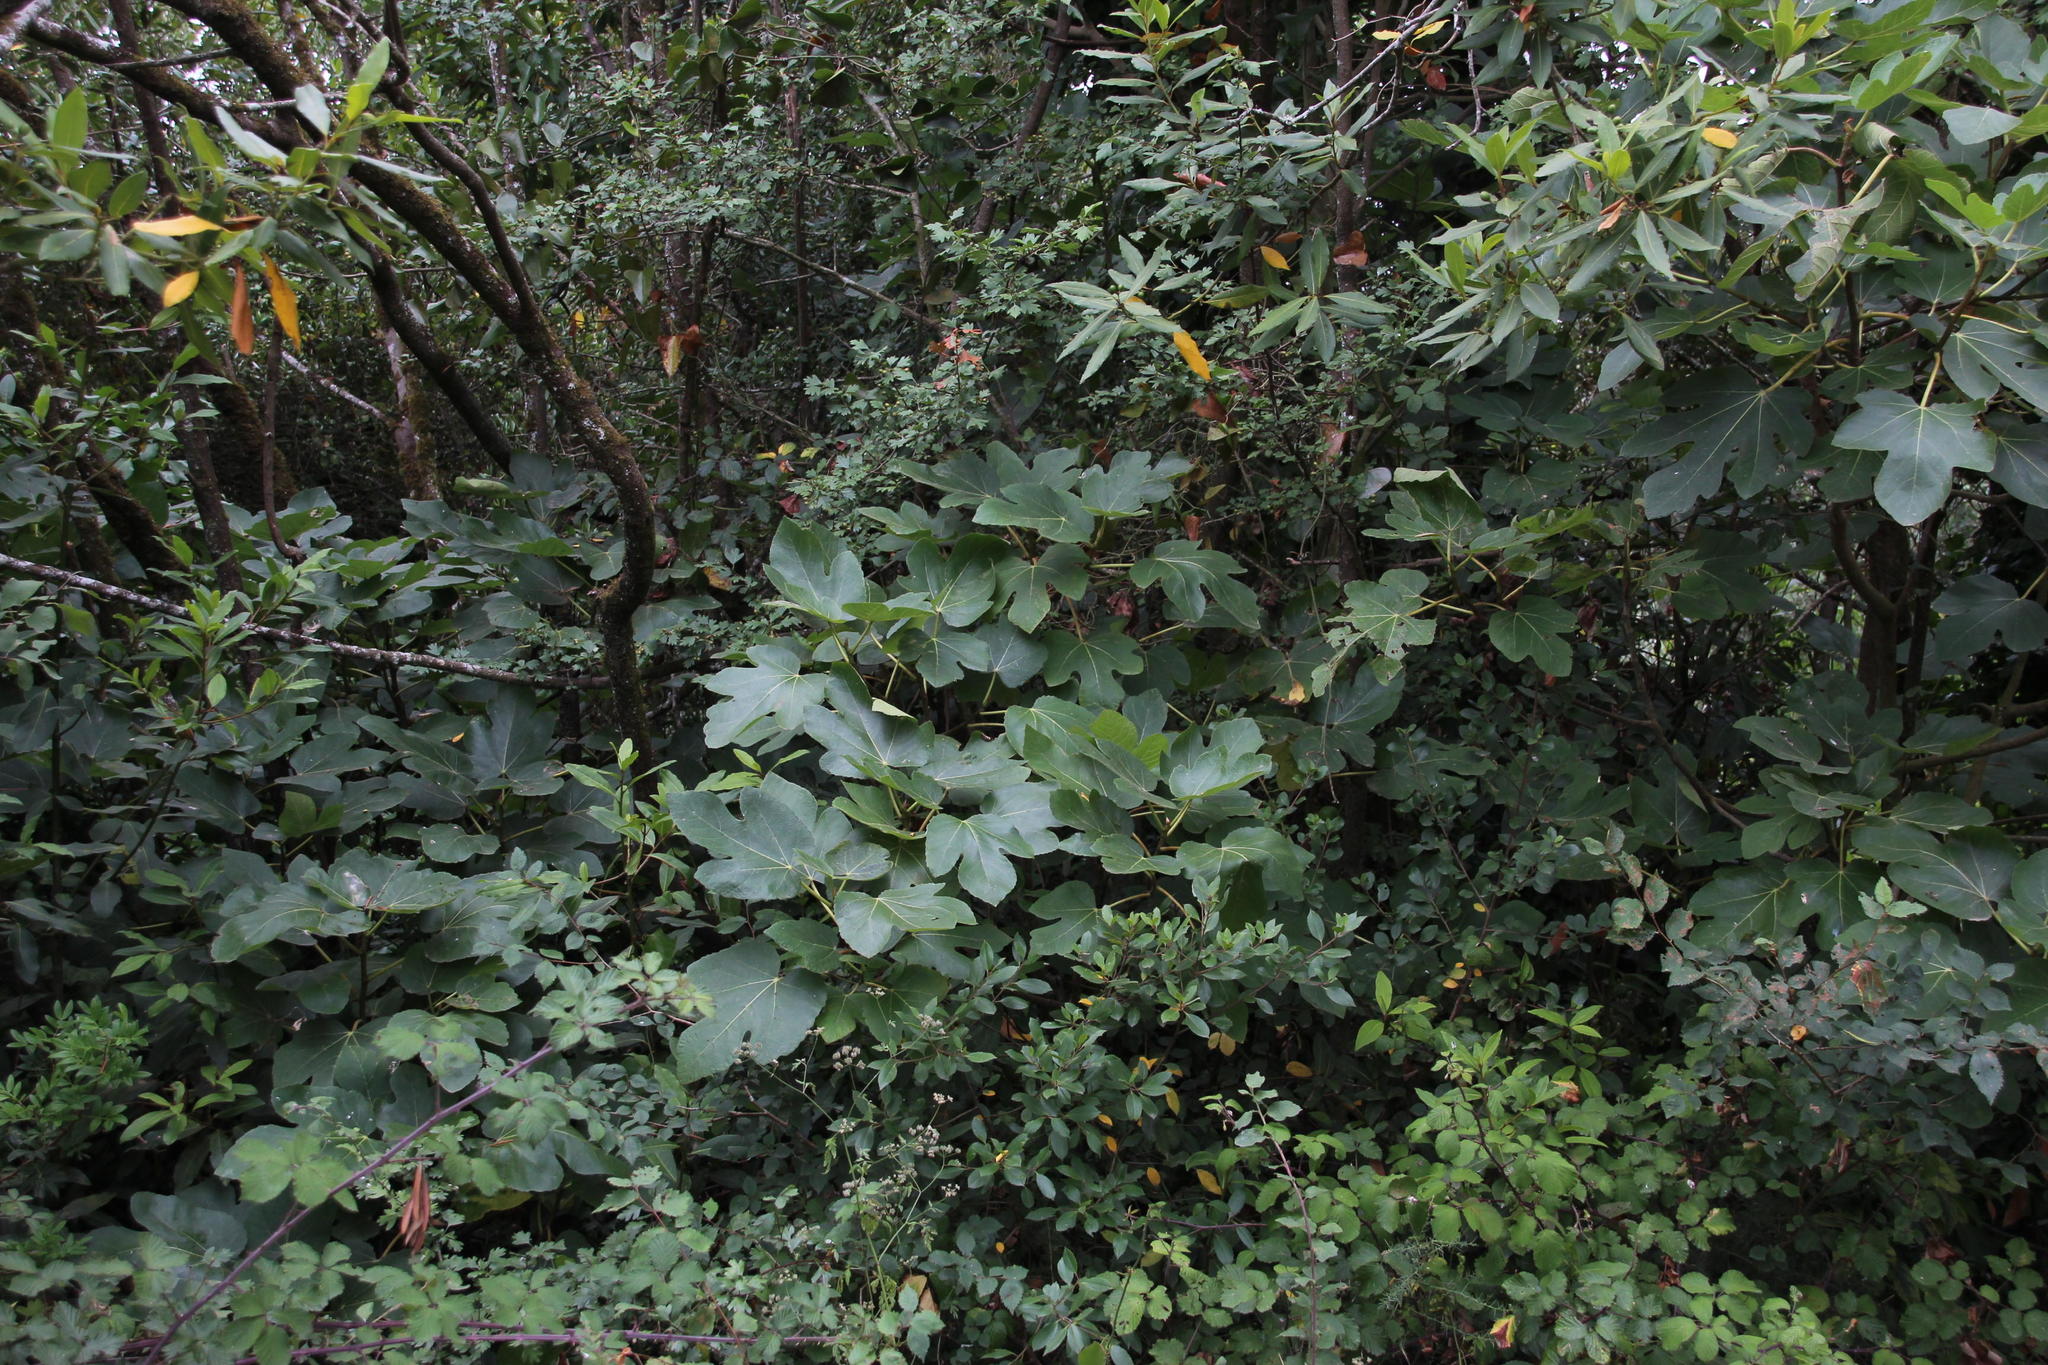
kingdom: Plantae
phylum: Tracheophyta
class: Magnoliopsida
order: Rosales
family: Moraceae
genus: Ficus
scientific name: Ficus carica
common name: Fig
